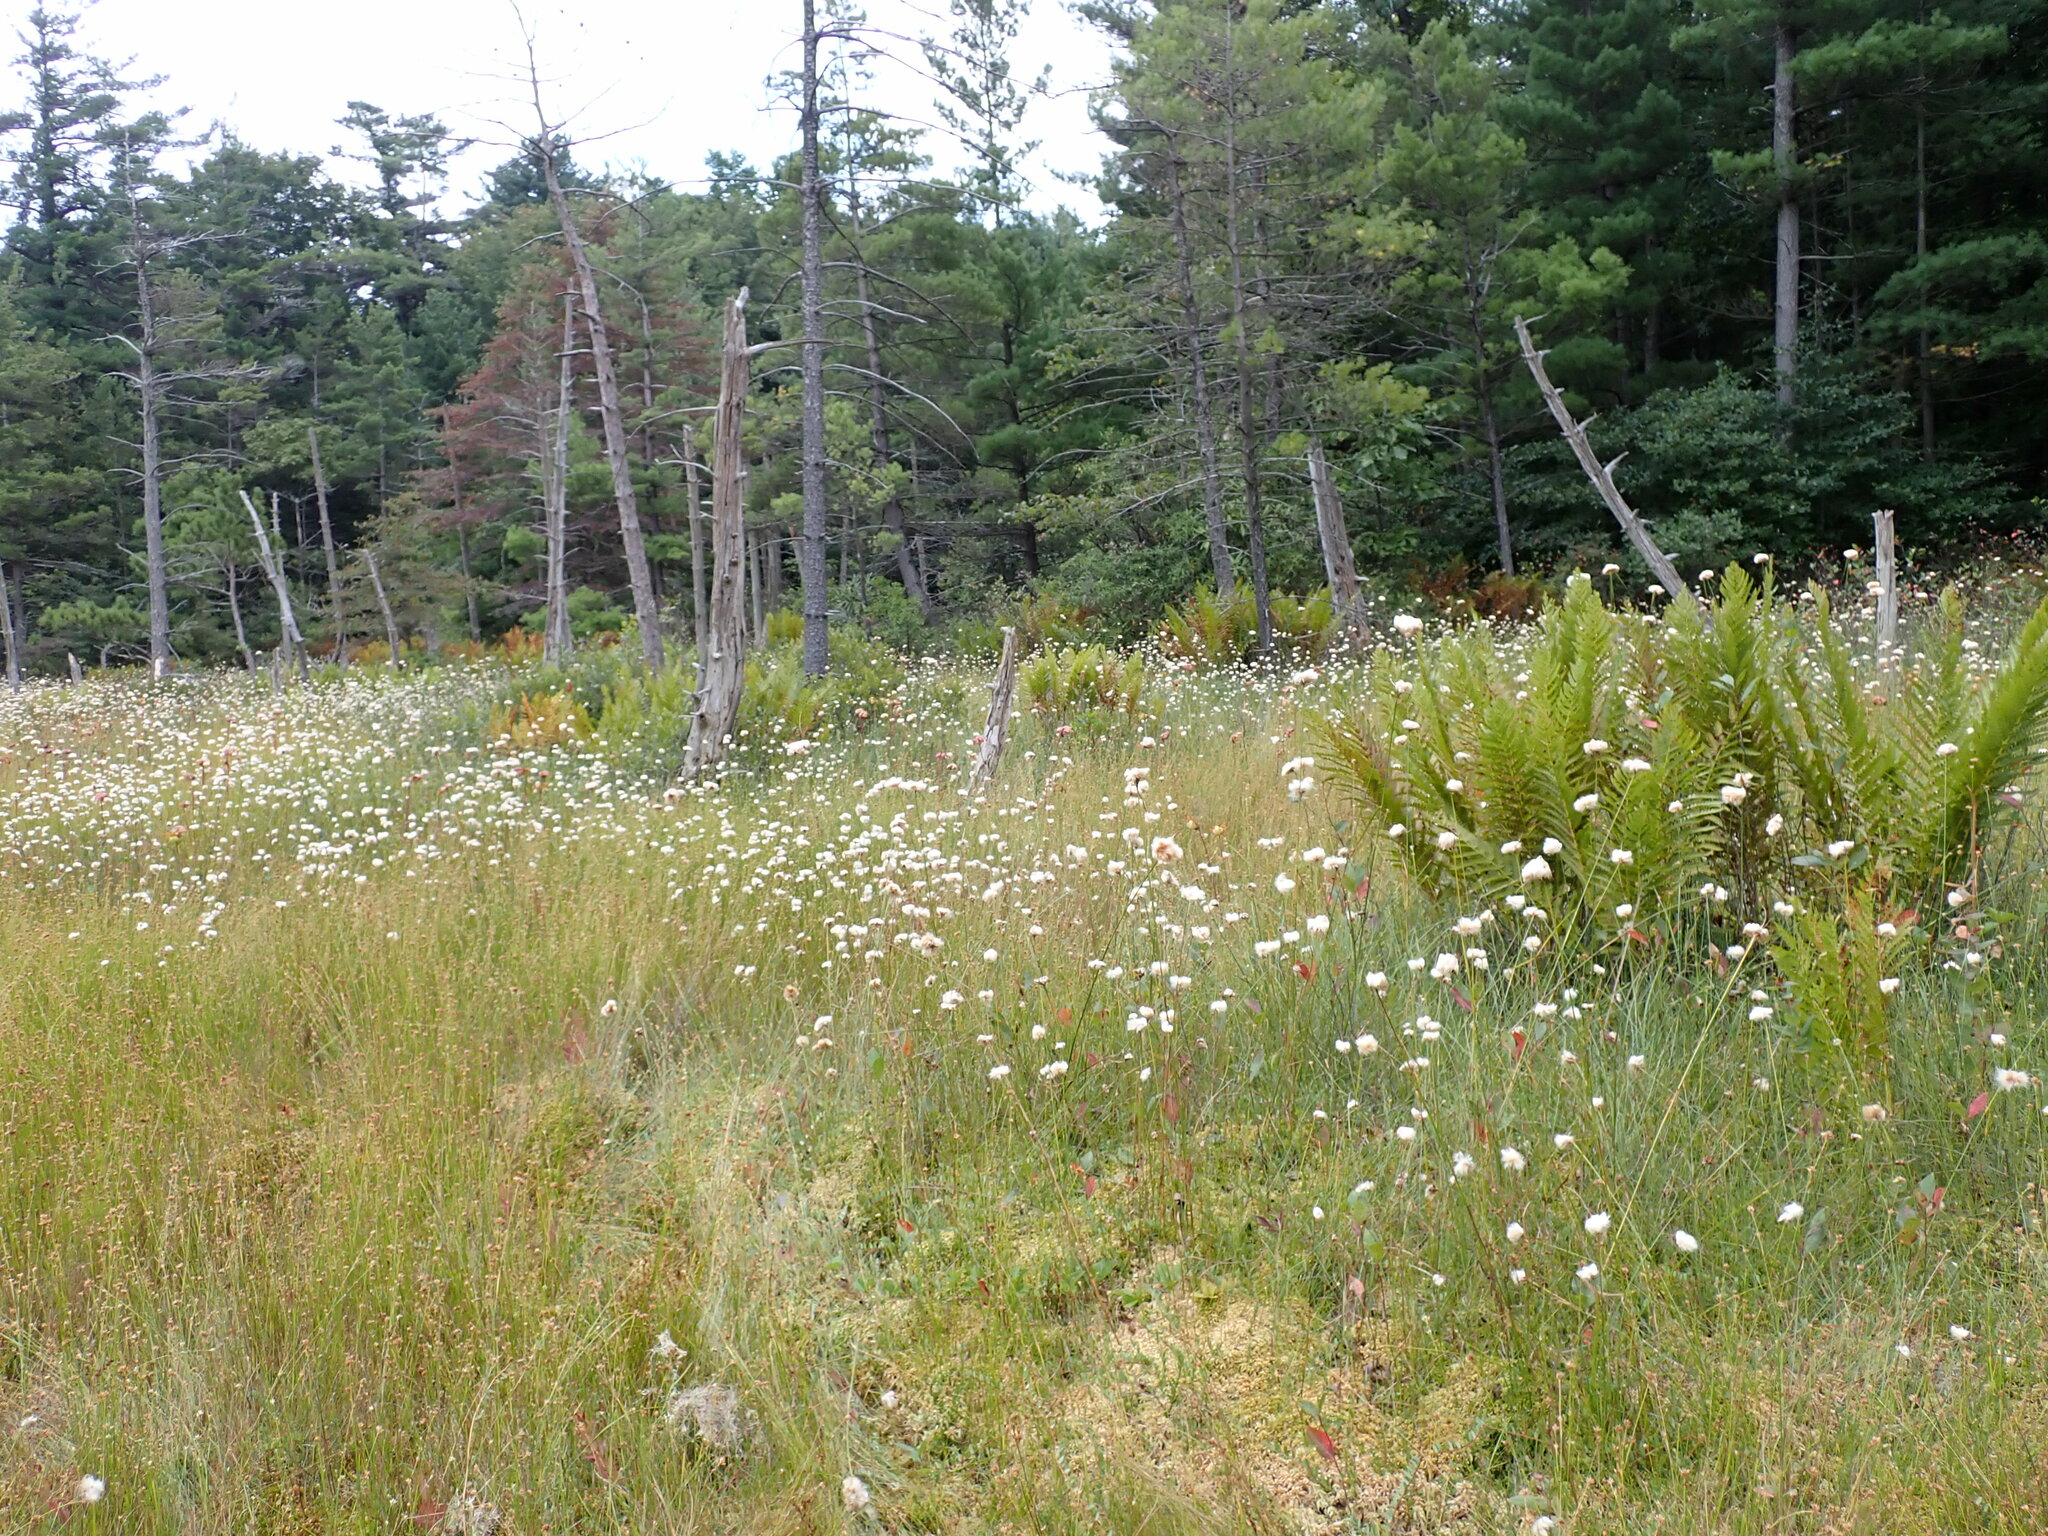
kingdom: Plantae
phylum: Tracheophyta
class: Liliopsida
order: Poales
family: Cyperaceae
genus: Eriophorum
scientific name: Eriophorum virginicum
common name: Tawny cottongrass
